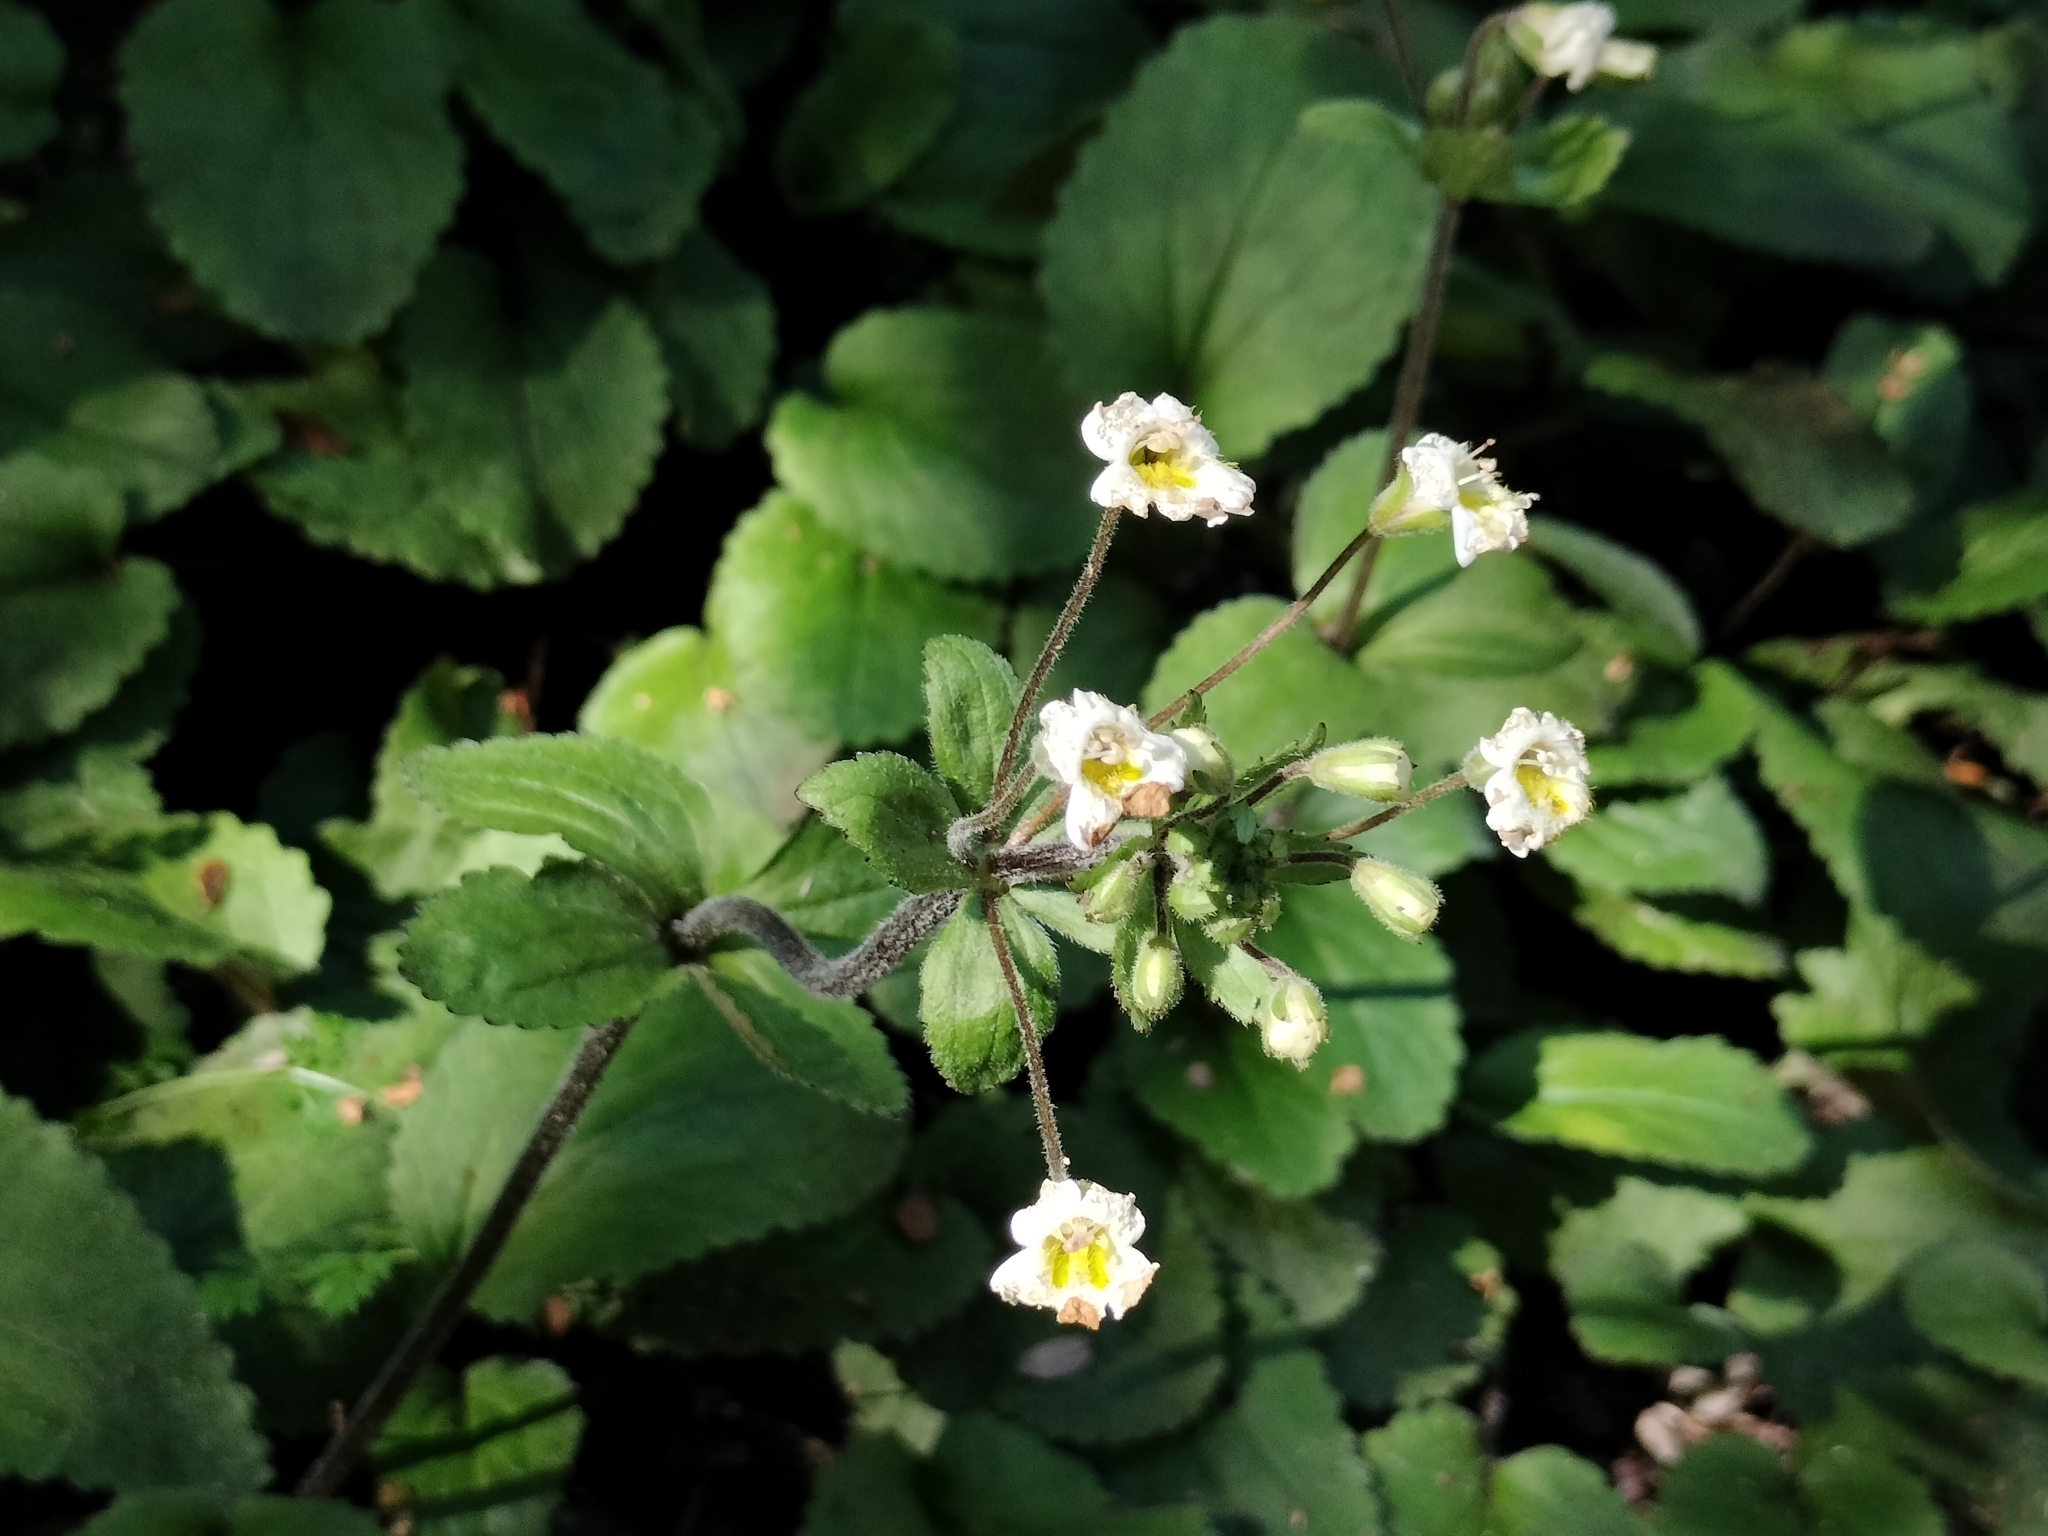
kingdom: Plantae
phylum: Tracheophyta
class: Magnoliopsida
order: Lamiales
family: Plantaginaceae
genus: Ourisia
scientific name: Ourisia macrophylla
